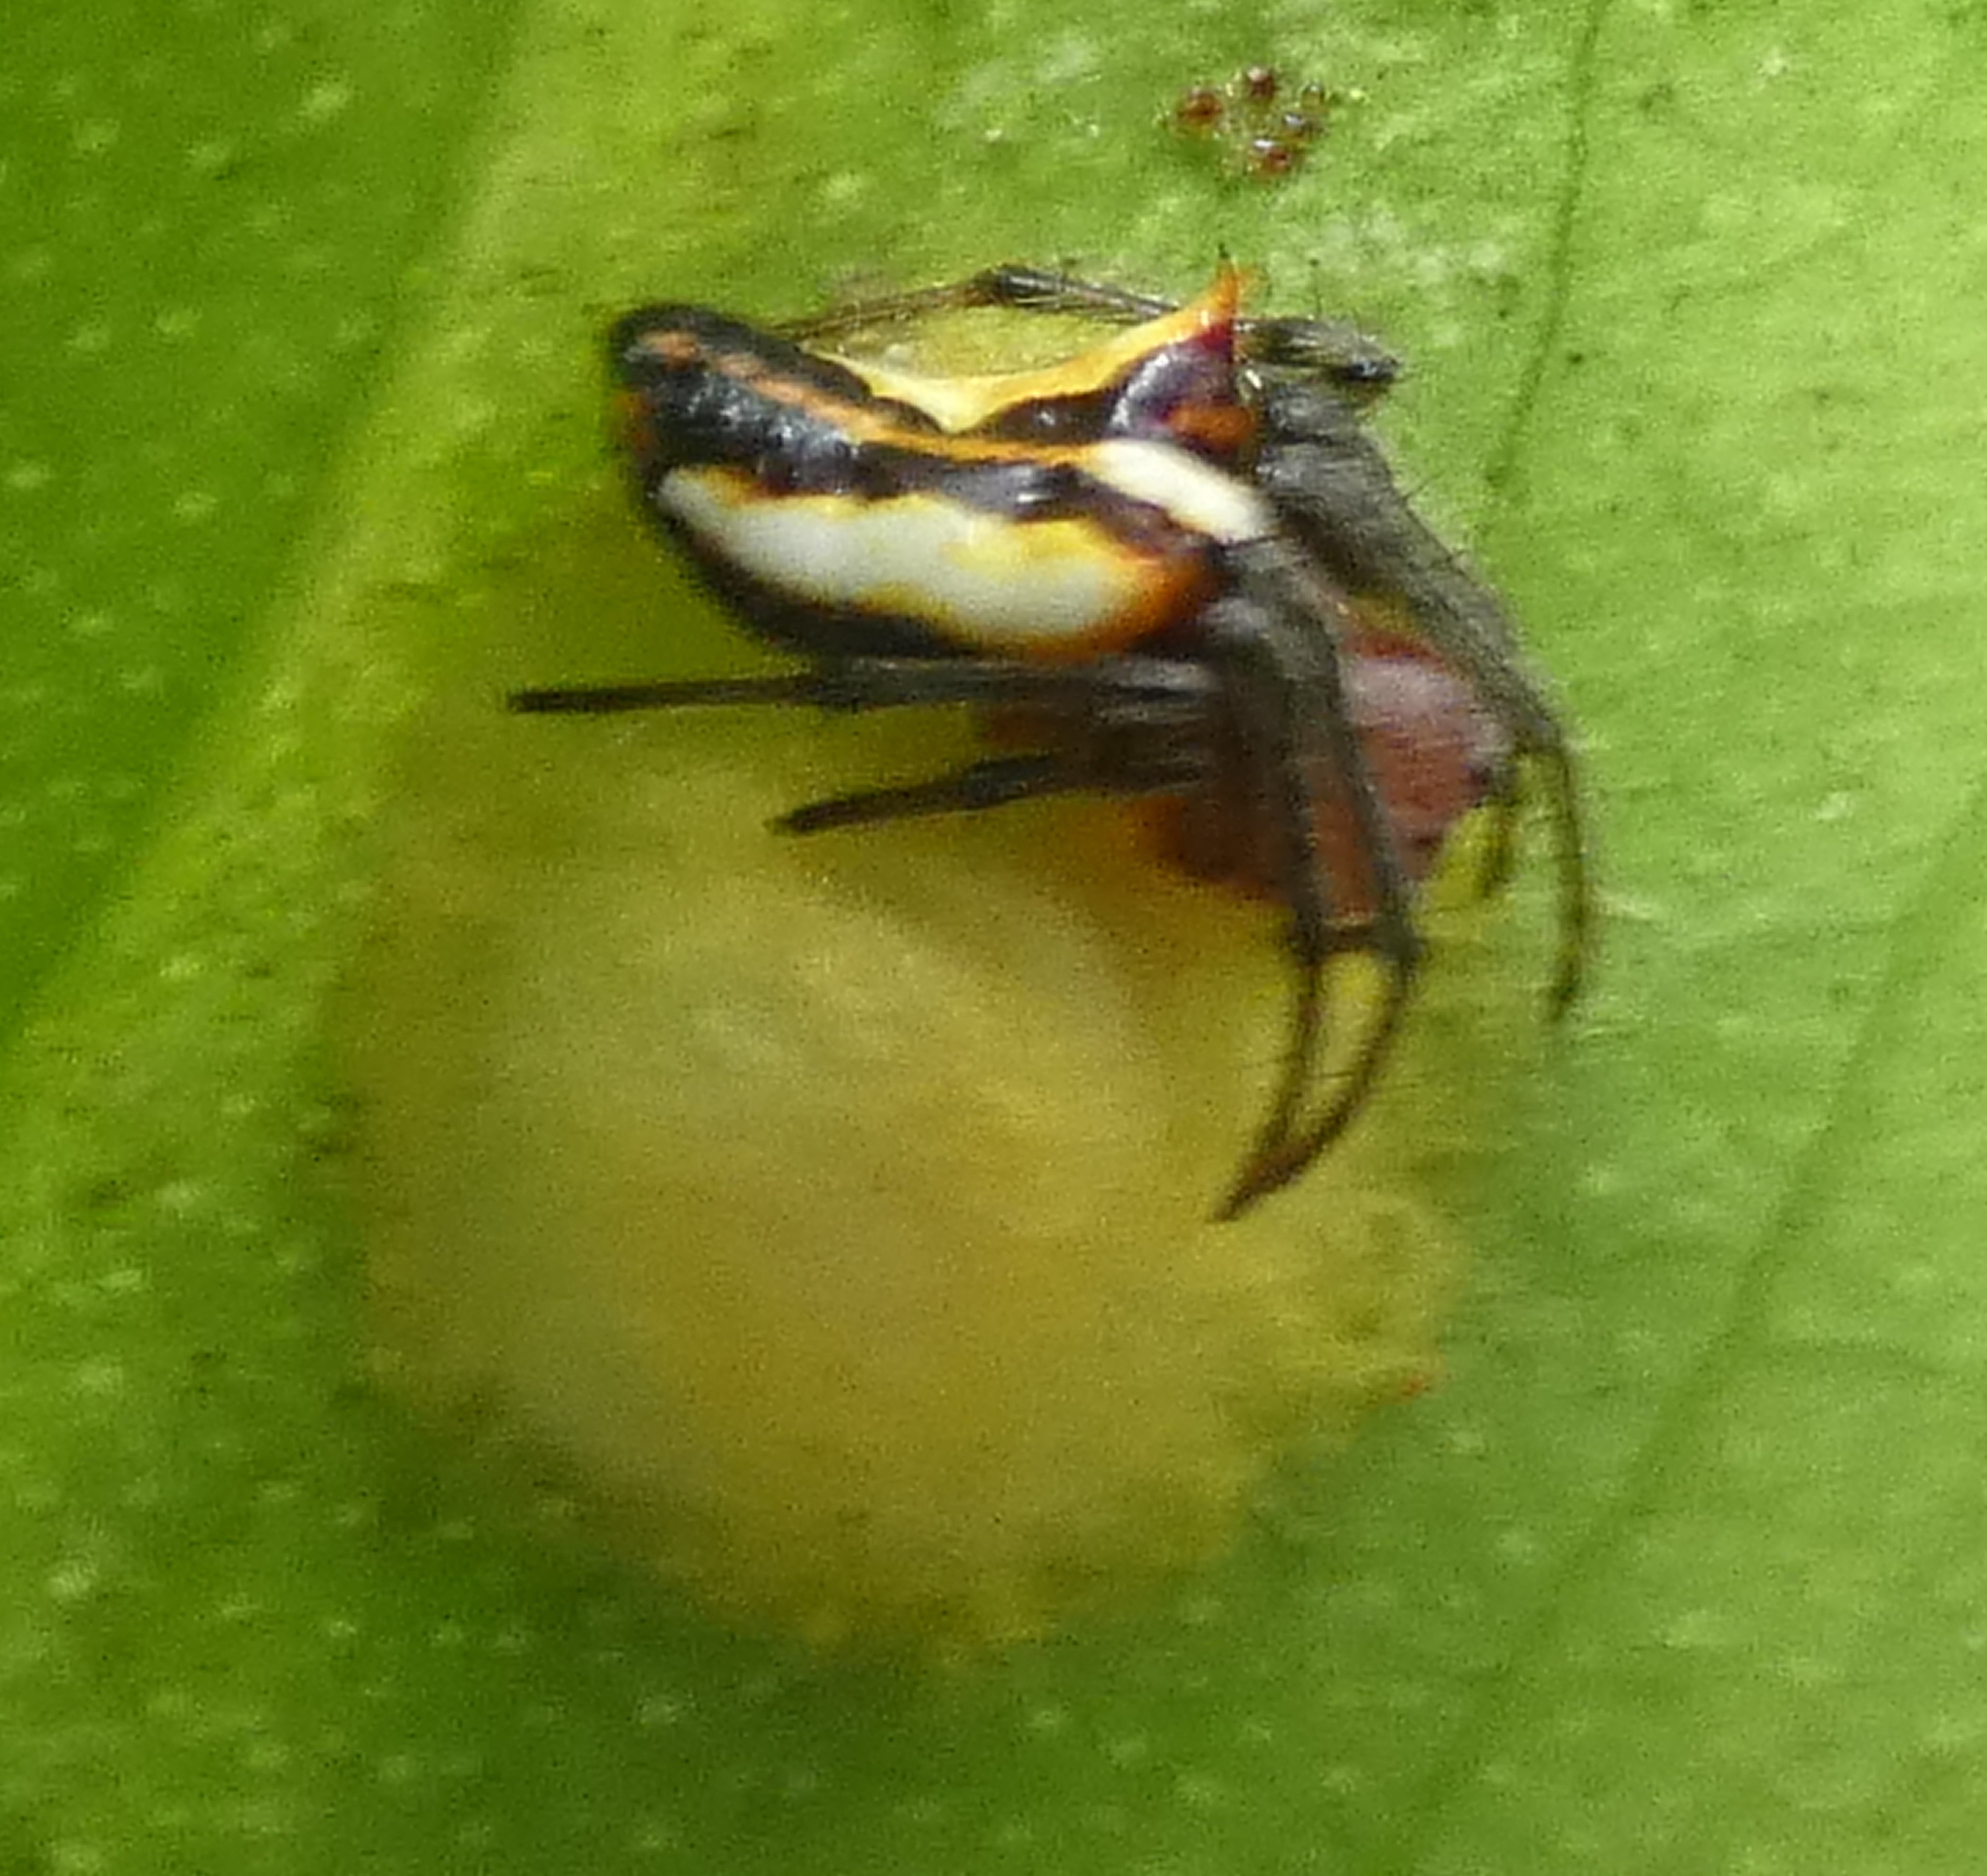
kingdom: Animalia
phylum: Arthropoda
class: Arachnida
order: Araneae
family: Araneidae
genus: Alpaida
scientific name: Alpaida bicornuta
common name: Orb weavers
